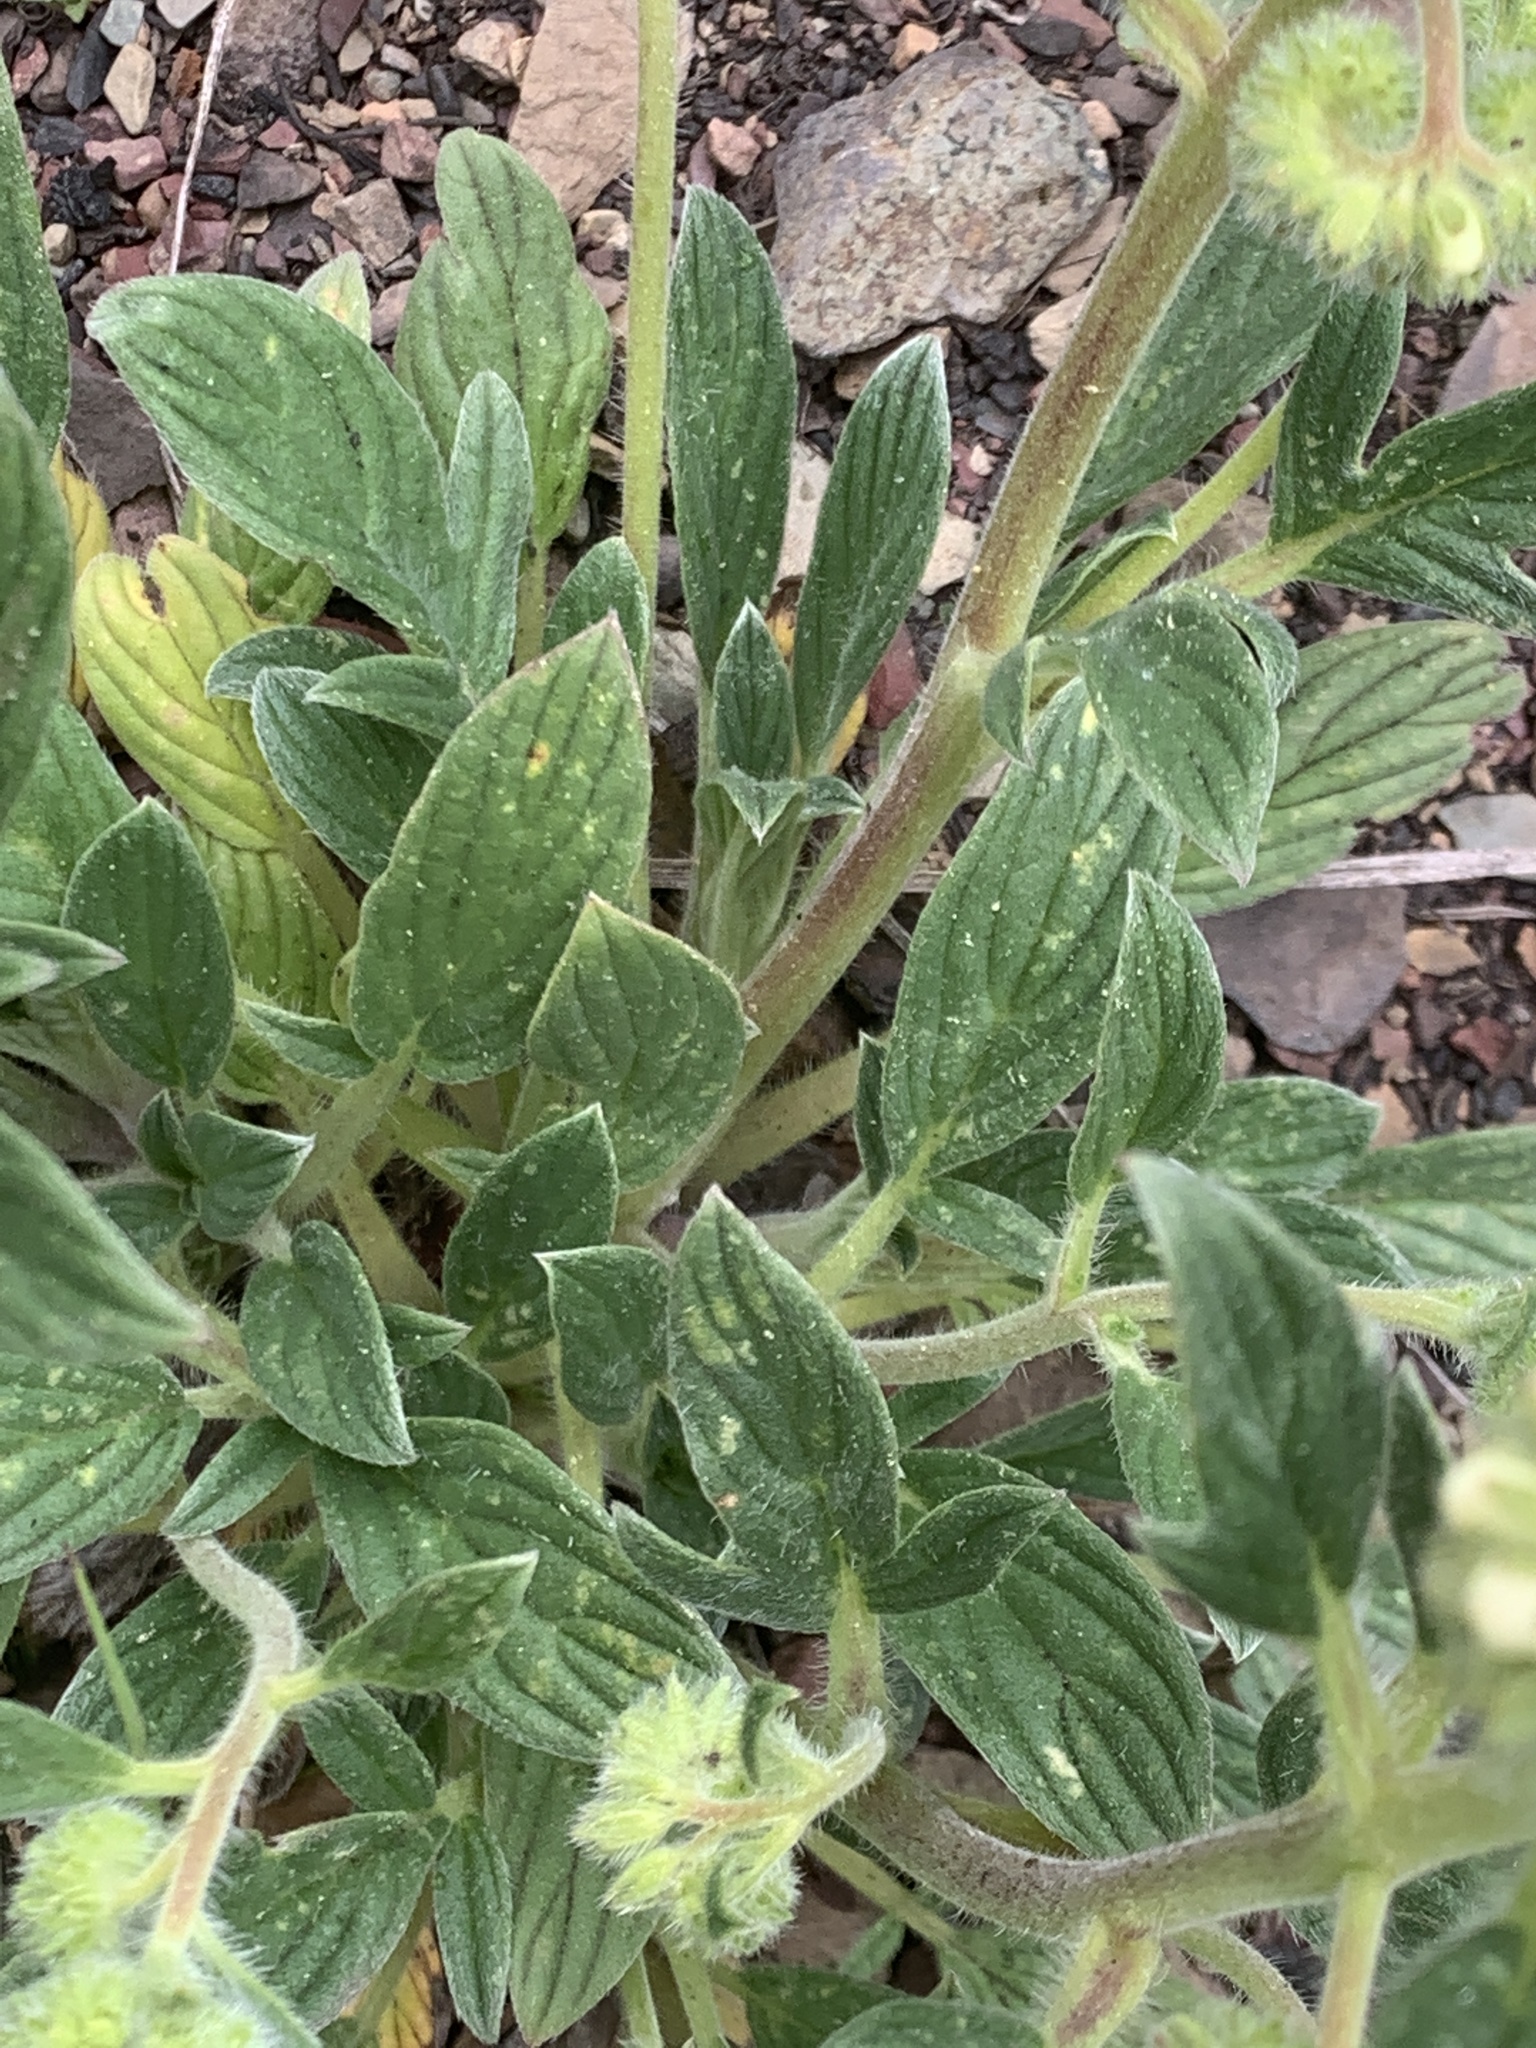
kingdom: Plantae
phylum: Tracheophyta
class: Magnoliopsida
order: Boraginales
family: Hydrophyllaceae
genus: Phacelia
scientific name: Phacelia hastata
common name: Silver-leaved phacelia
